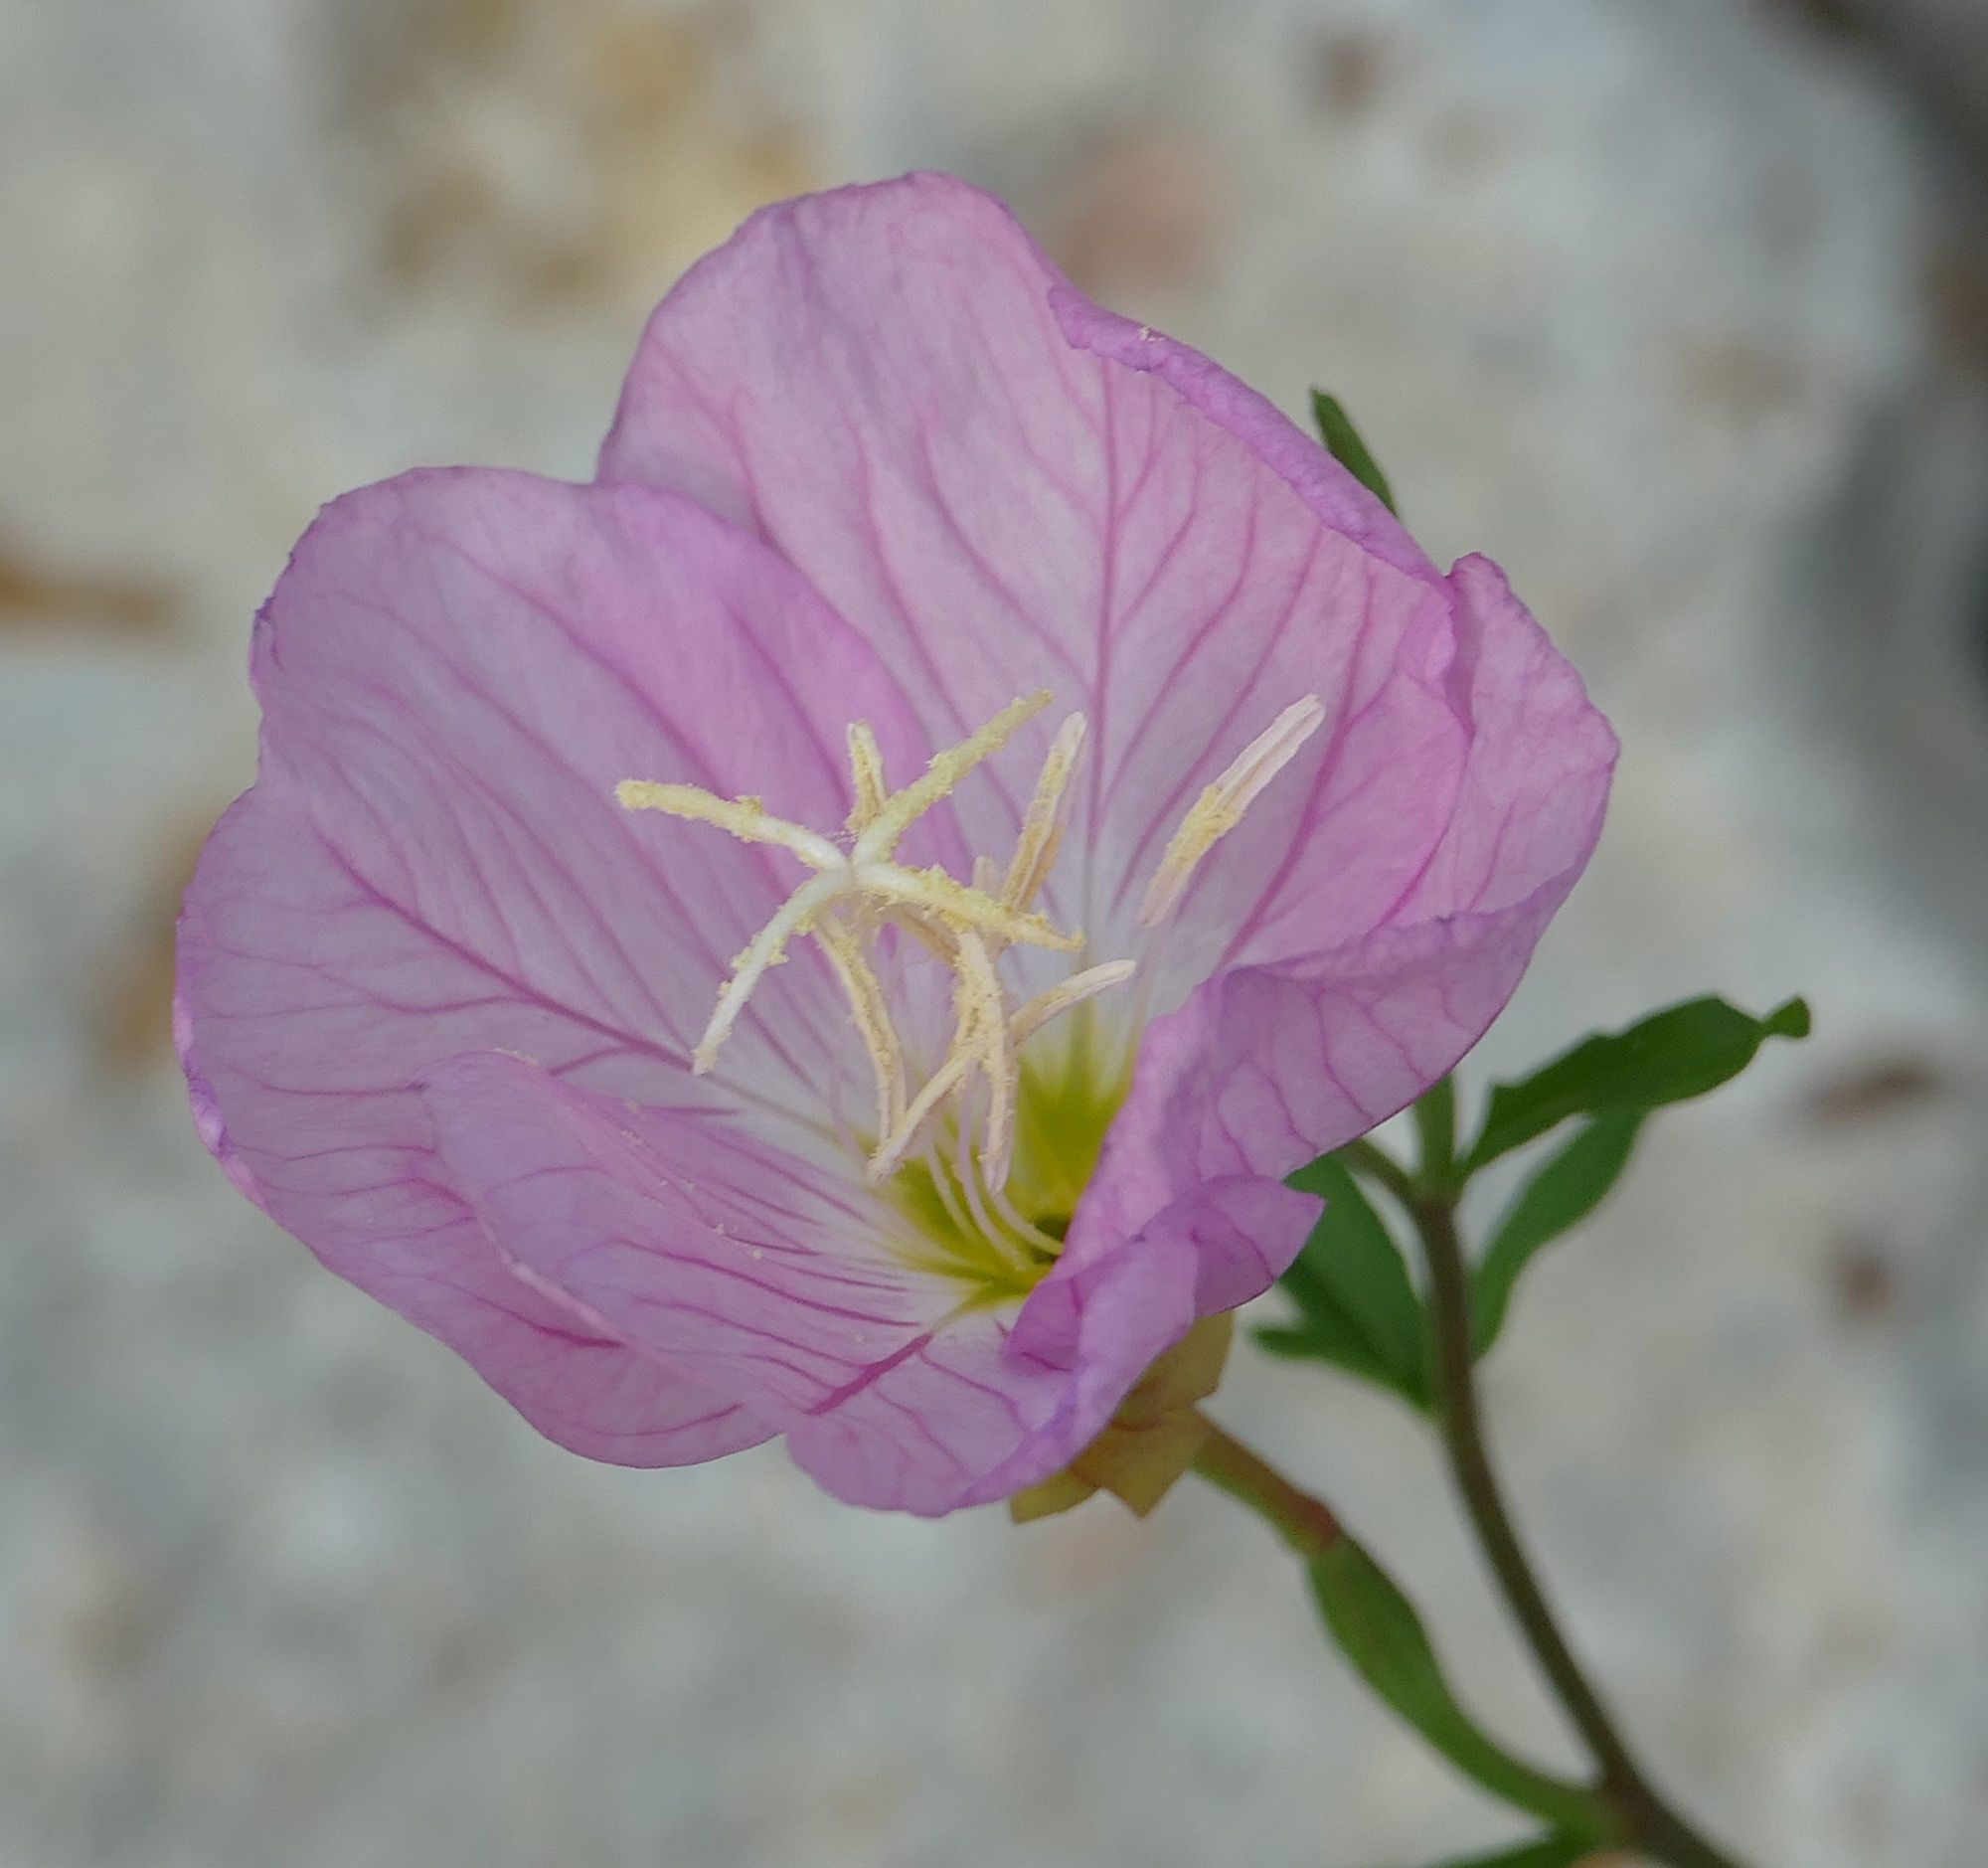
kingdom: Plantae
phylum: Tracheophyta
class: Magnoliopsida
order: Myrtales
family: Onagraceae
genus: Oenothera
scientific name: Oenothera speciosa
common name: White evening-primrose
